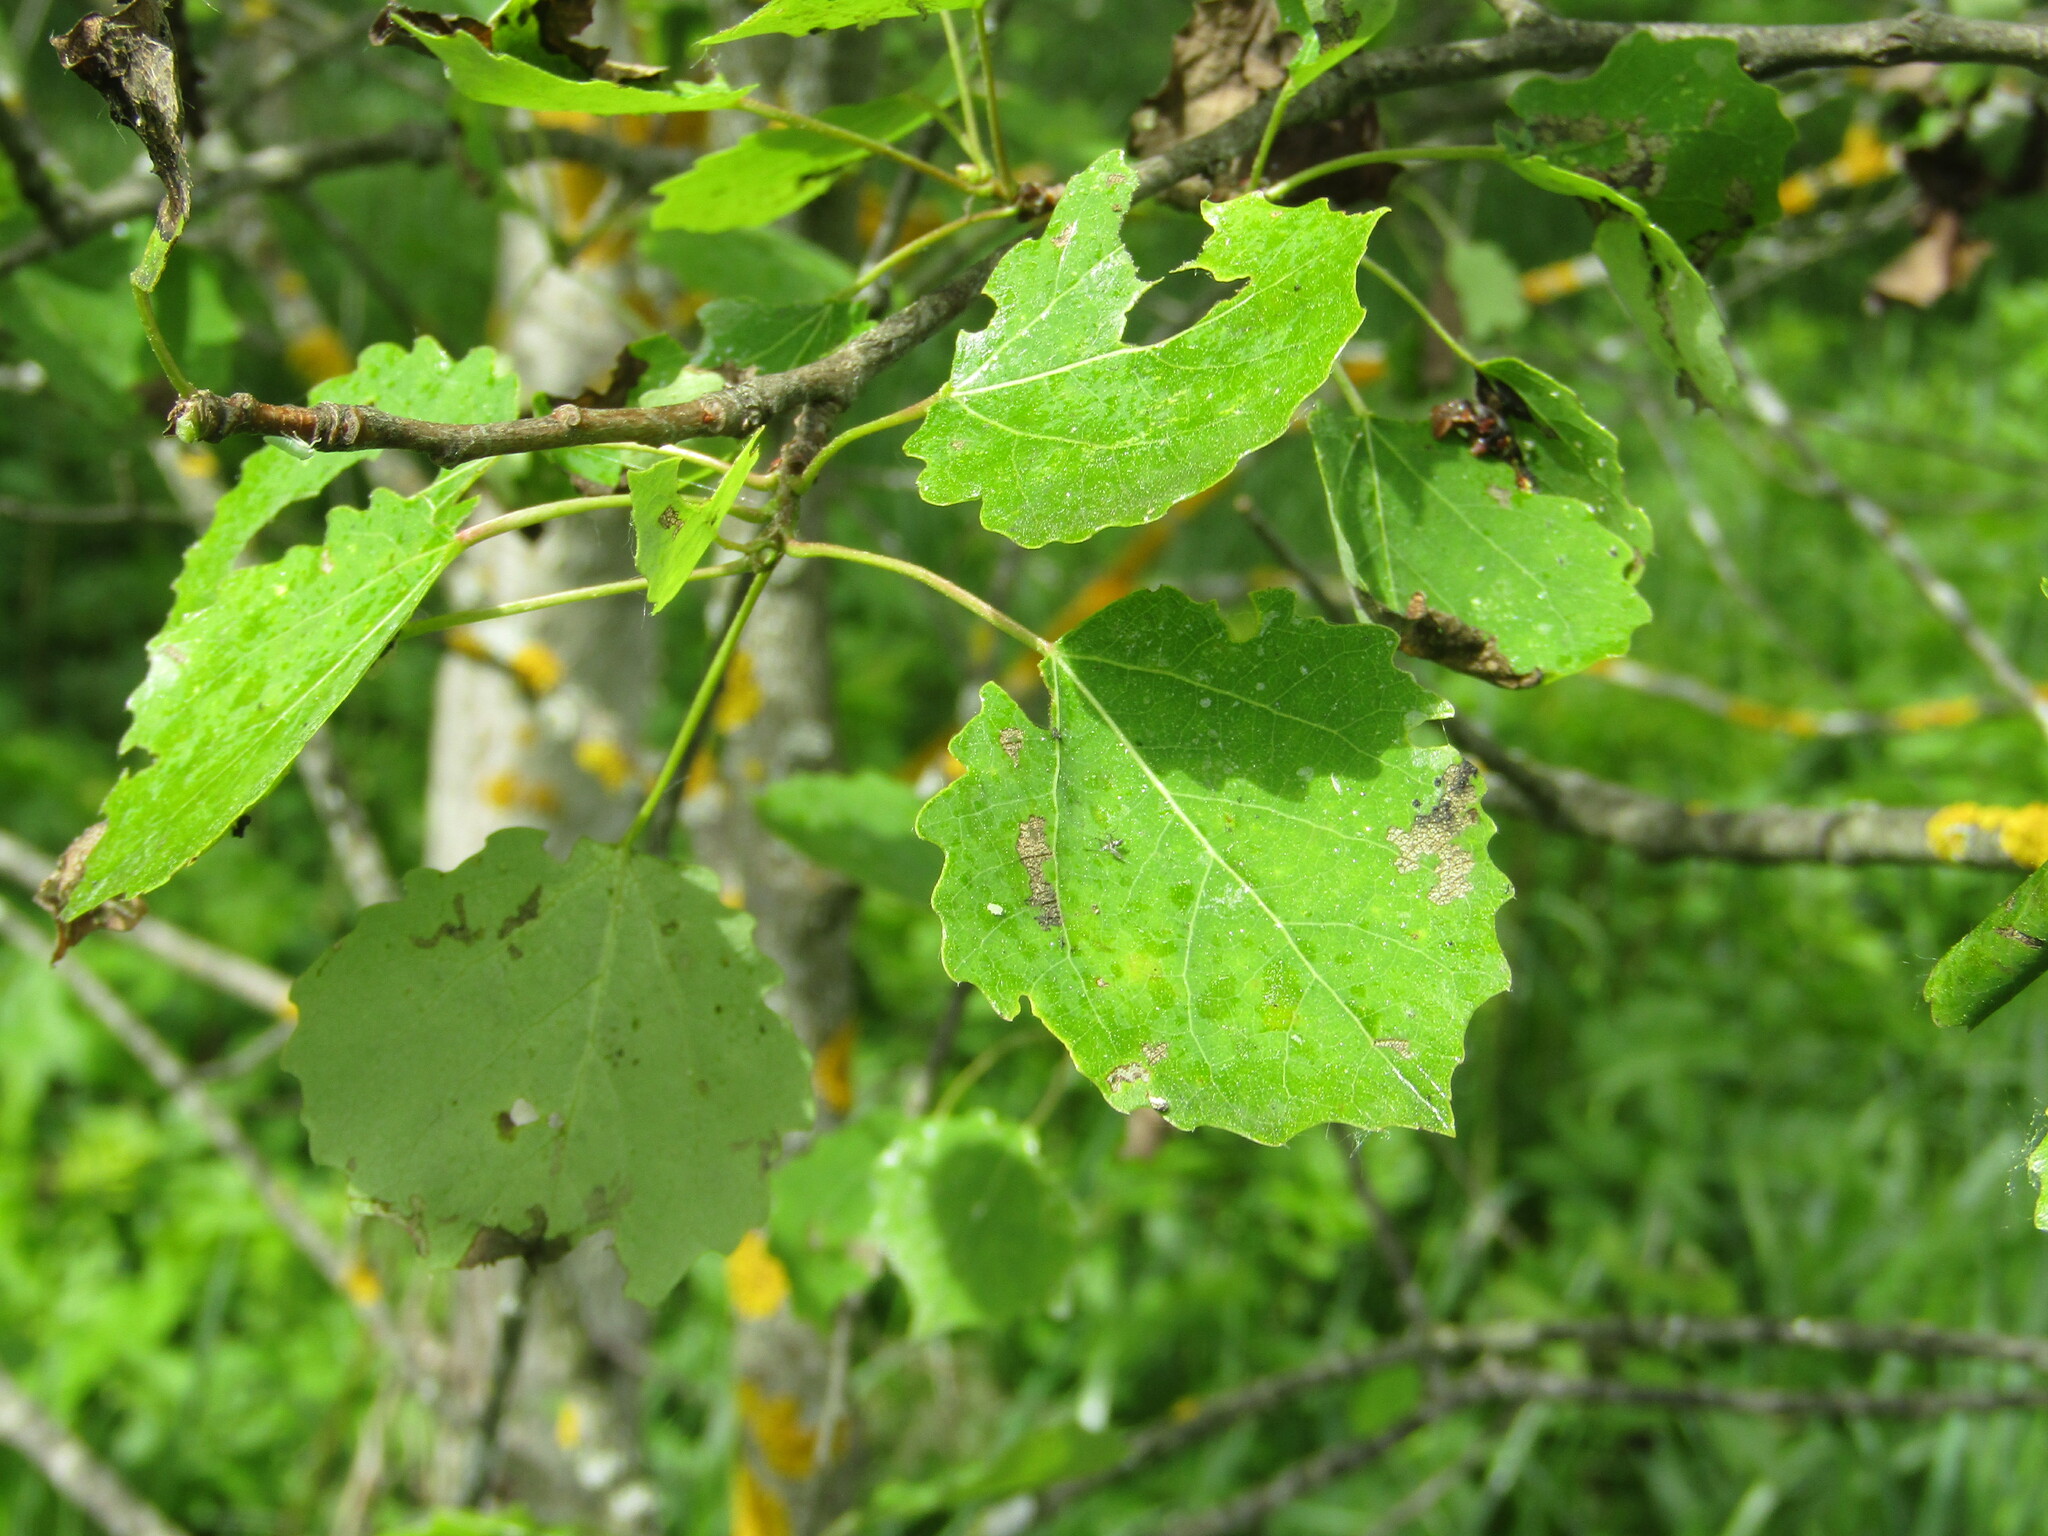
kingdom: Plantae
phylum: Tracheophyta
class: Magnoliopsida
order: Malpighiales
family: Salicaceae
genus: Populus
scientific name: Populus tremula
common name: European aspen
